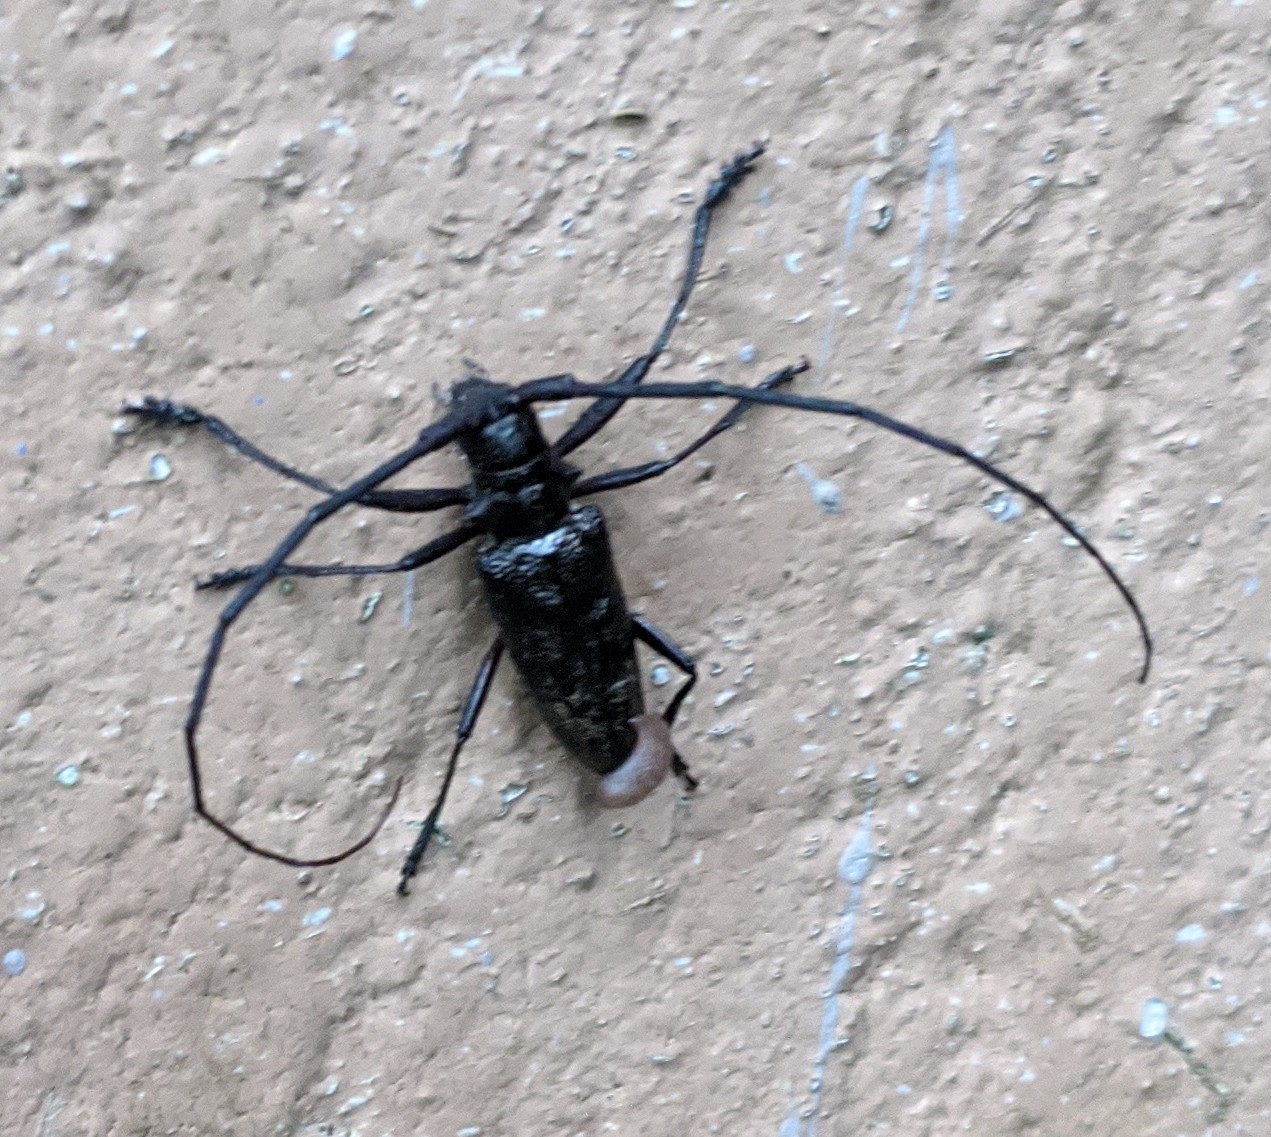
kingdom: Animalia
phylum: Arthropoda
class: Insecta
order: Coleoptera
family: Cerambycidae
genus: Monochamus
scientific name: Monochamus scutellatus
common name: White-spotted sawyer beetle
